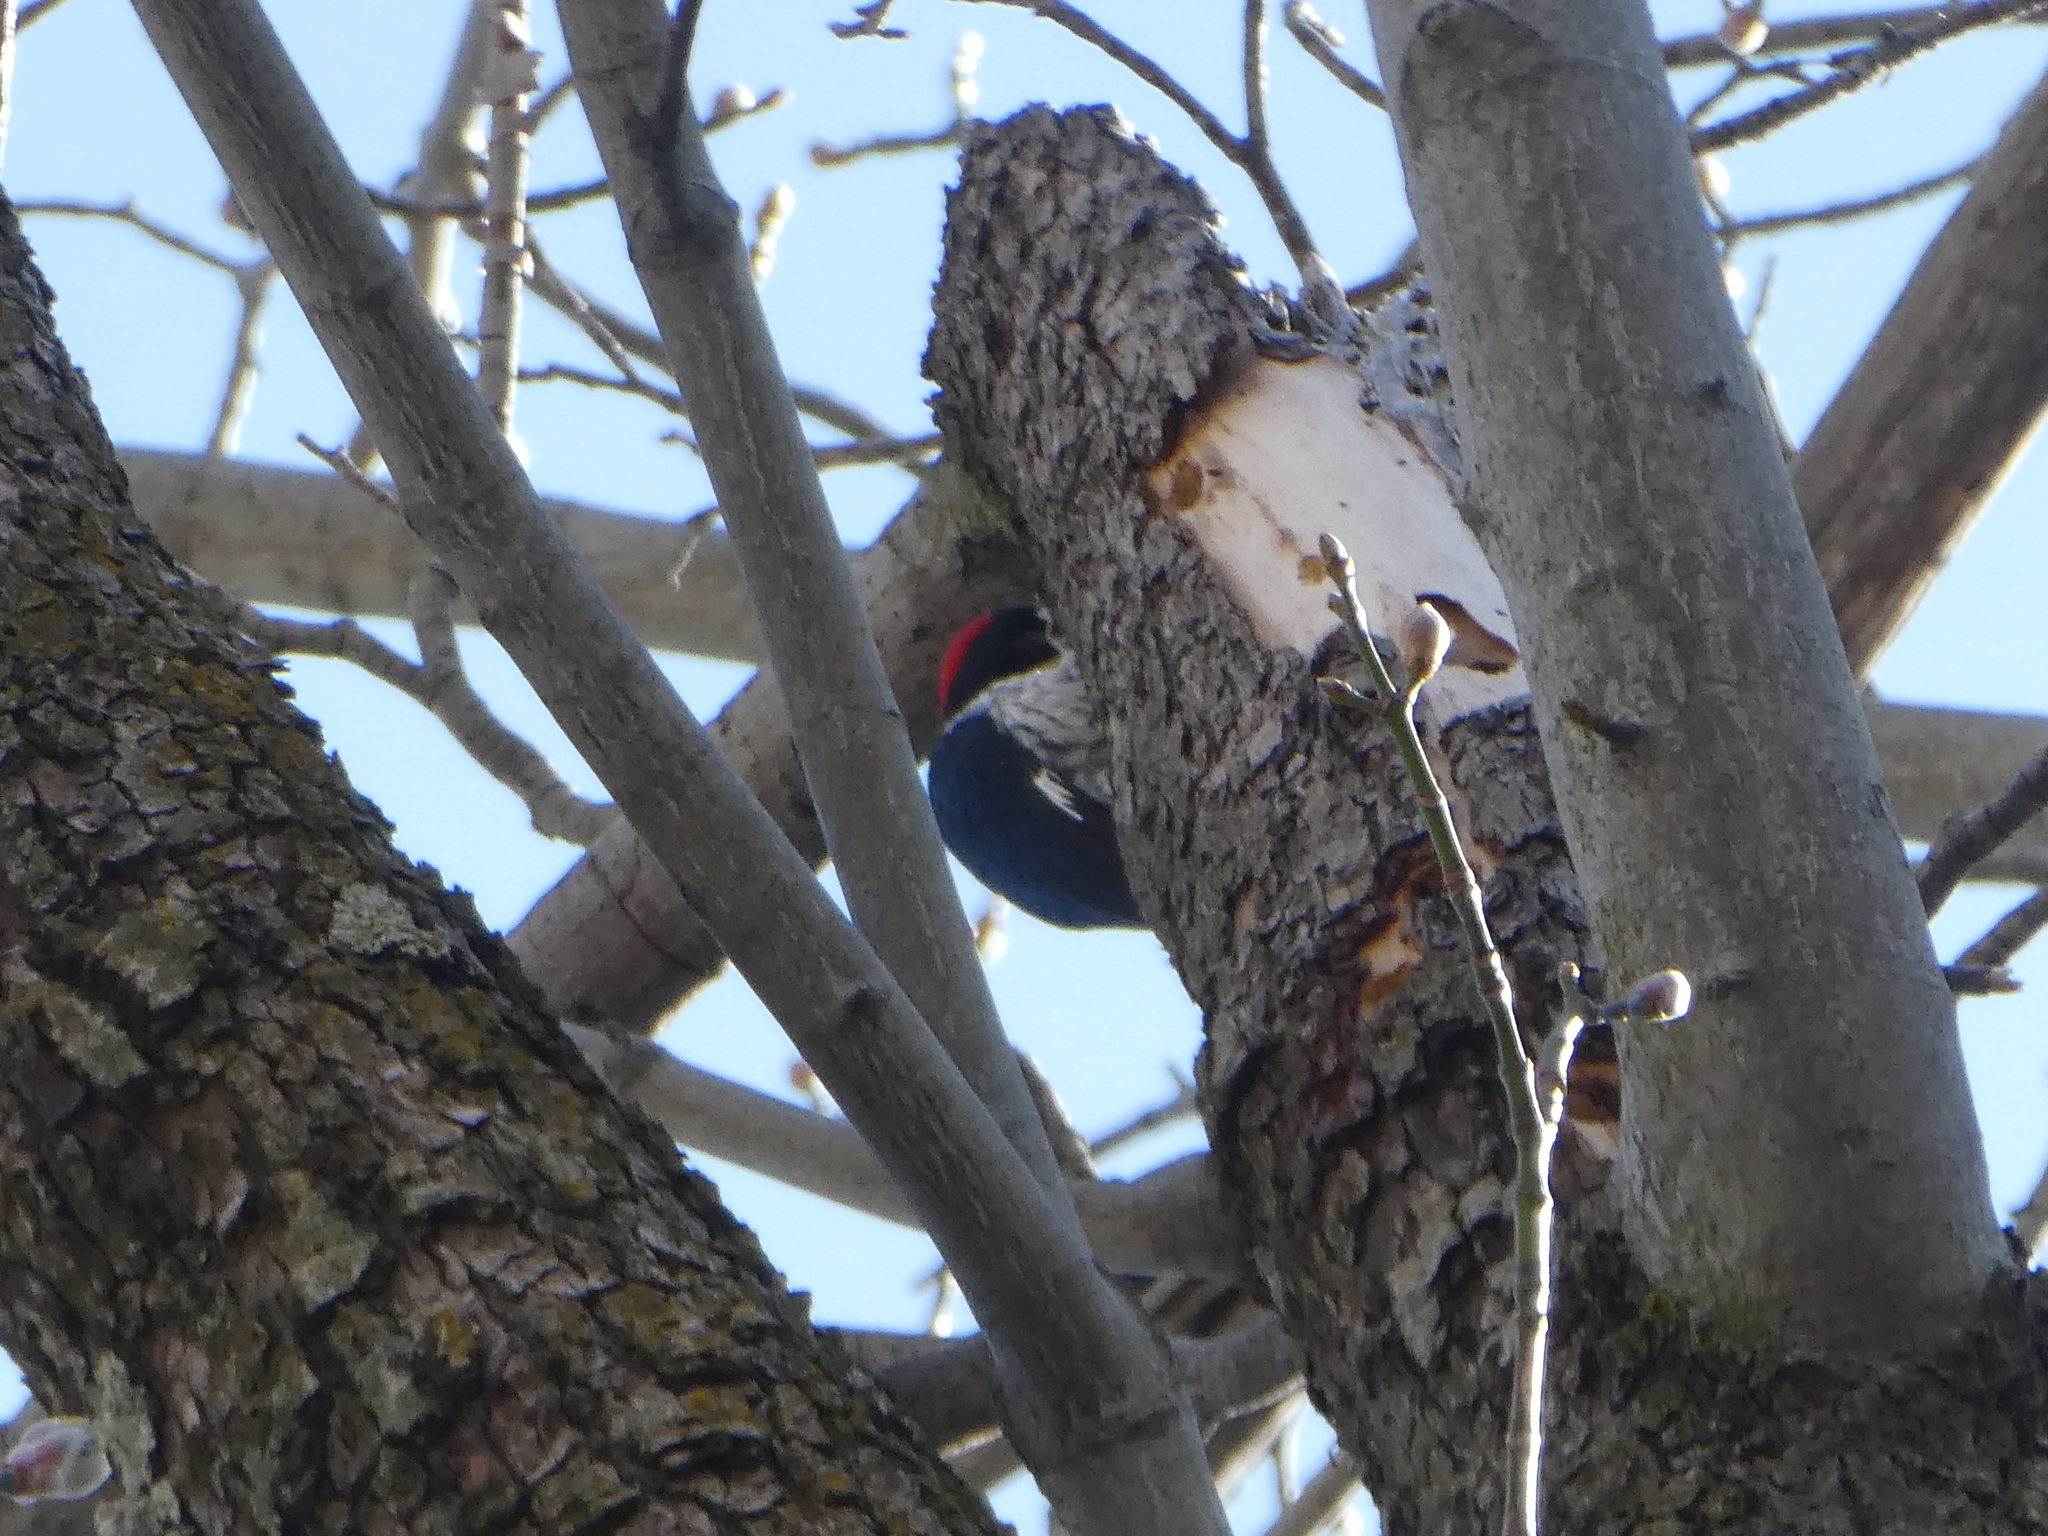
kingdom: Animalia
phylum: Chordata
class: Aves
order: Piciformes
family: Picidae
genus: Melanerpes
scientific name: Melanerpes formicivorus
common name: Acorn woodpecker
